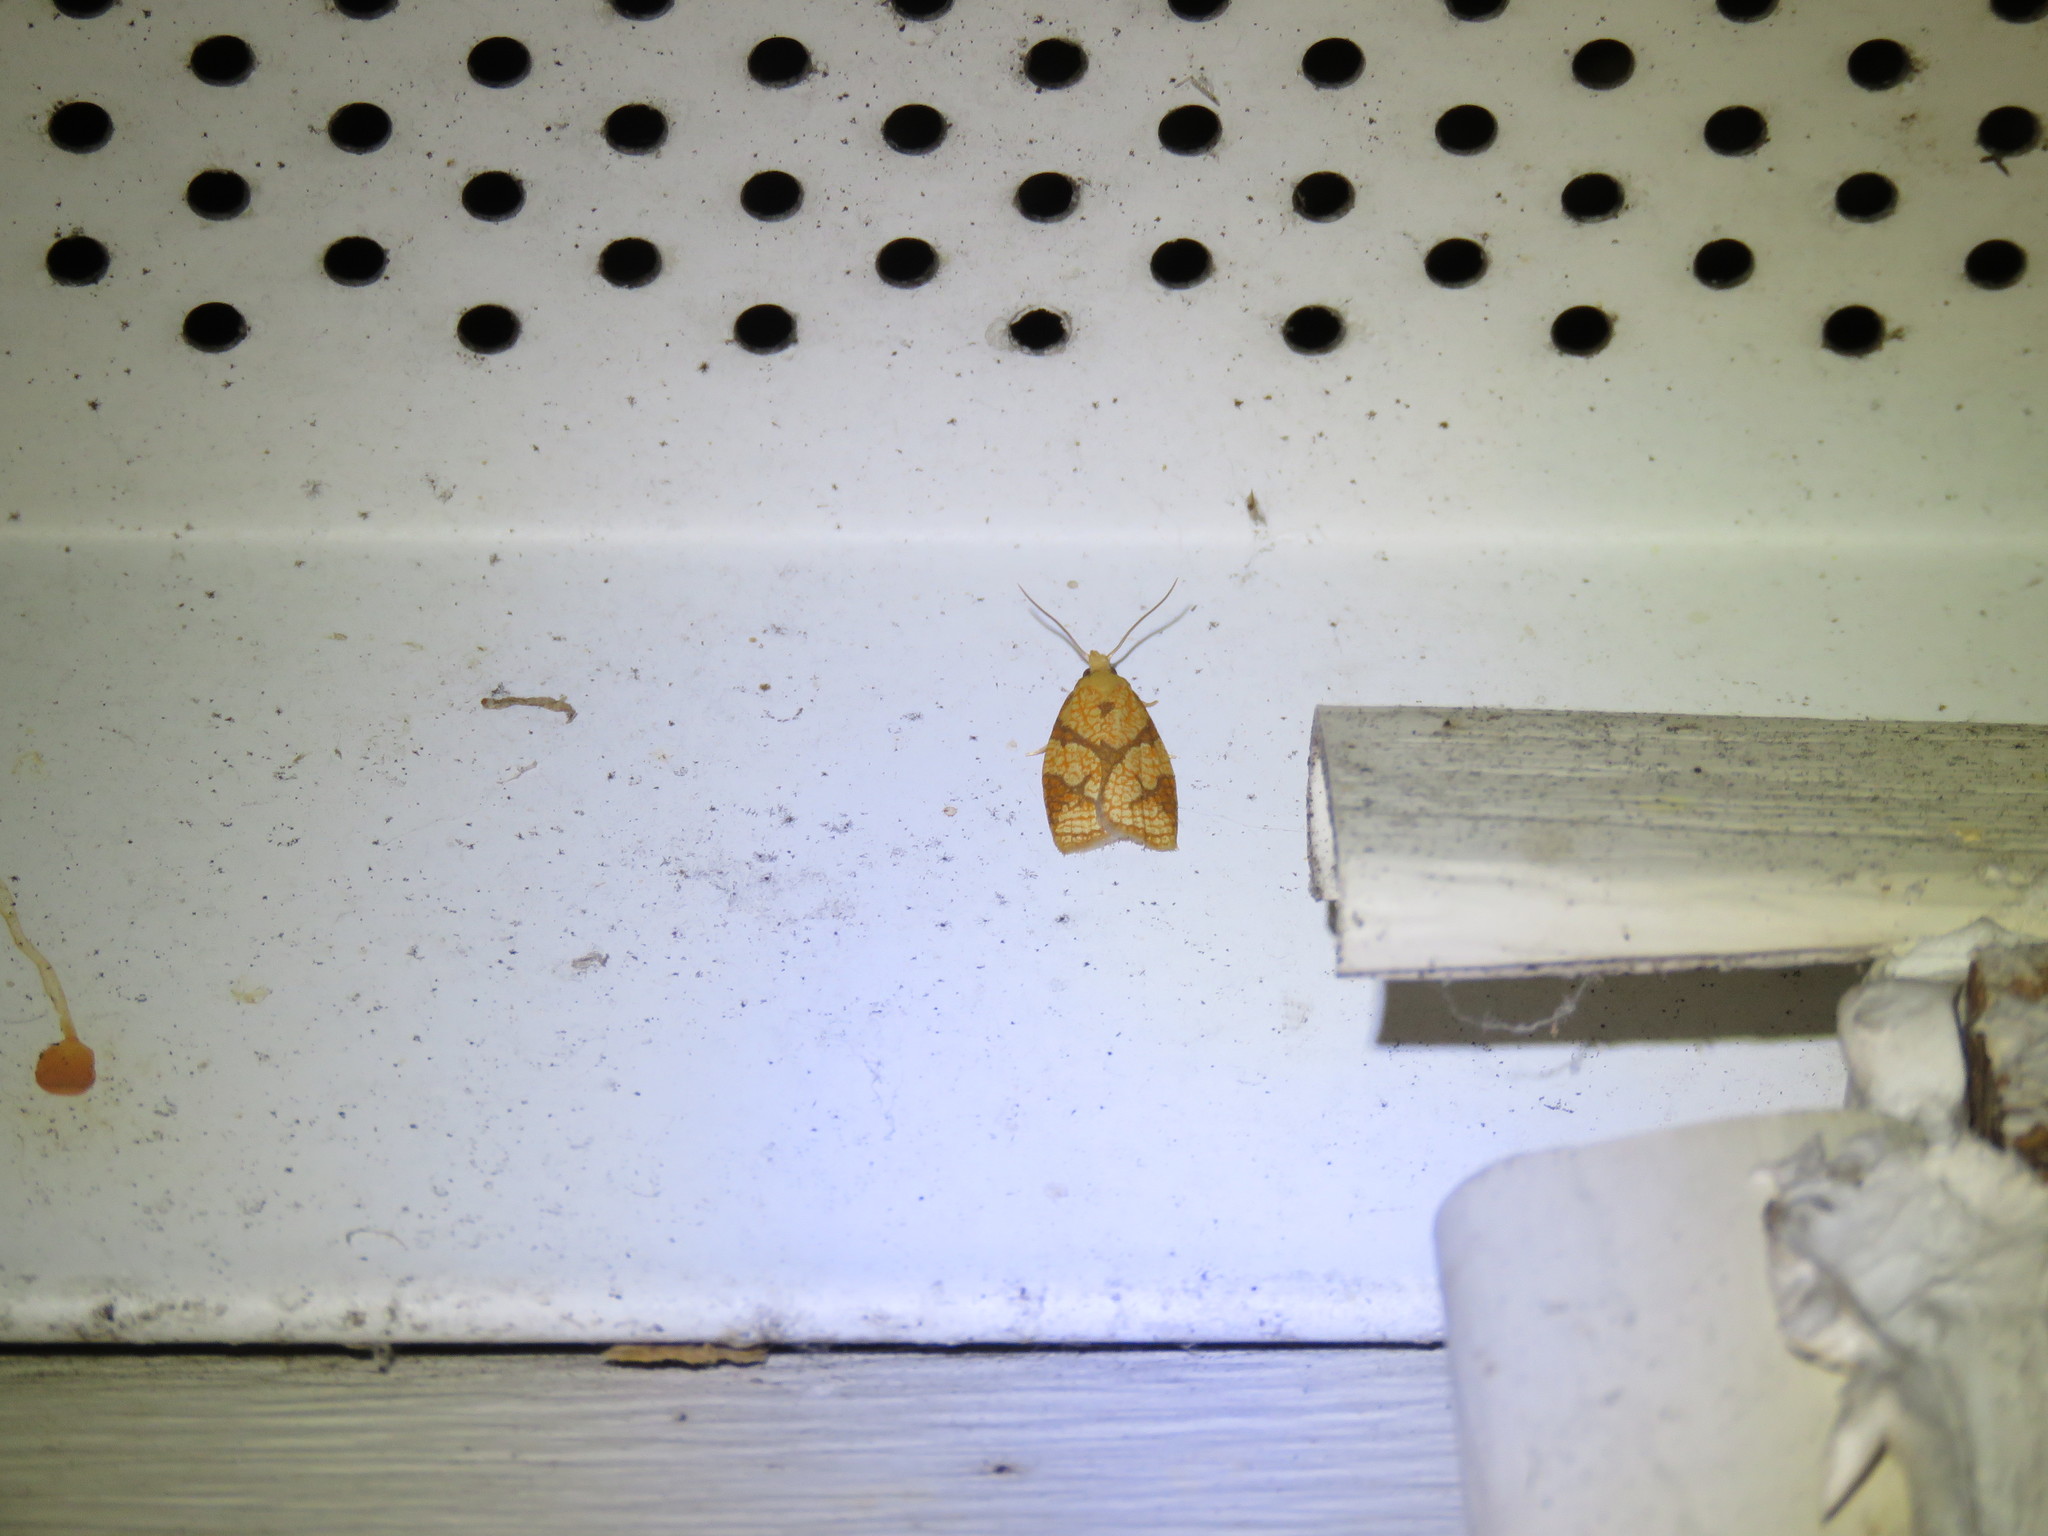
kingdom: Animalia
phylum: Arthropoda
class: Insecta
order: Lepidoptera
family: Tortricidae
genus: Cenopis
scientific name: Cenopis reticulatana
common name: Reticulated fruitworm moth
